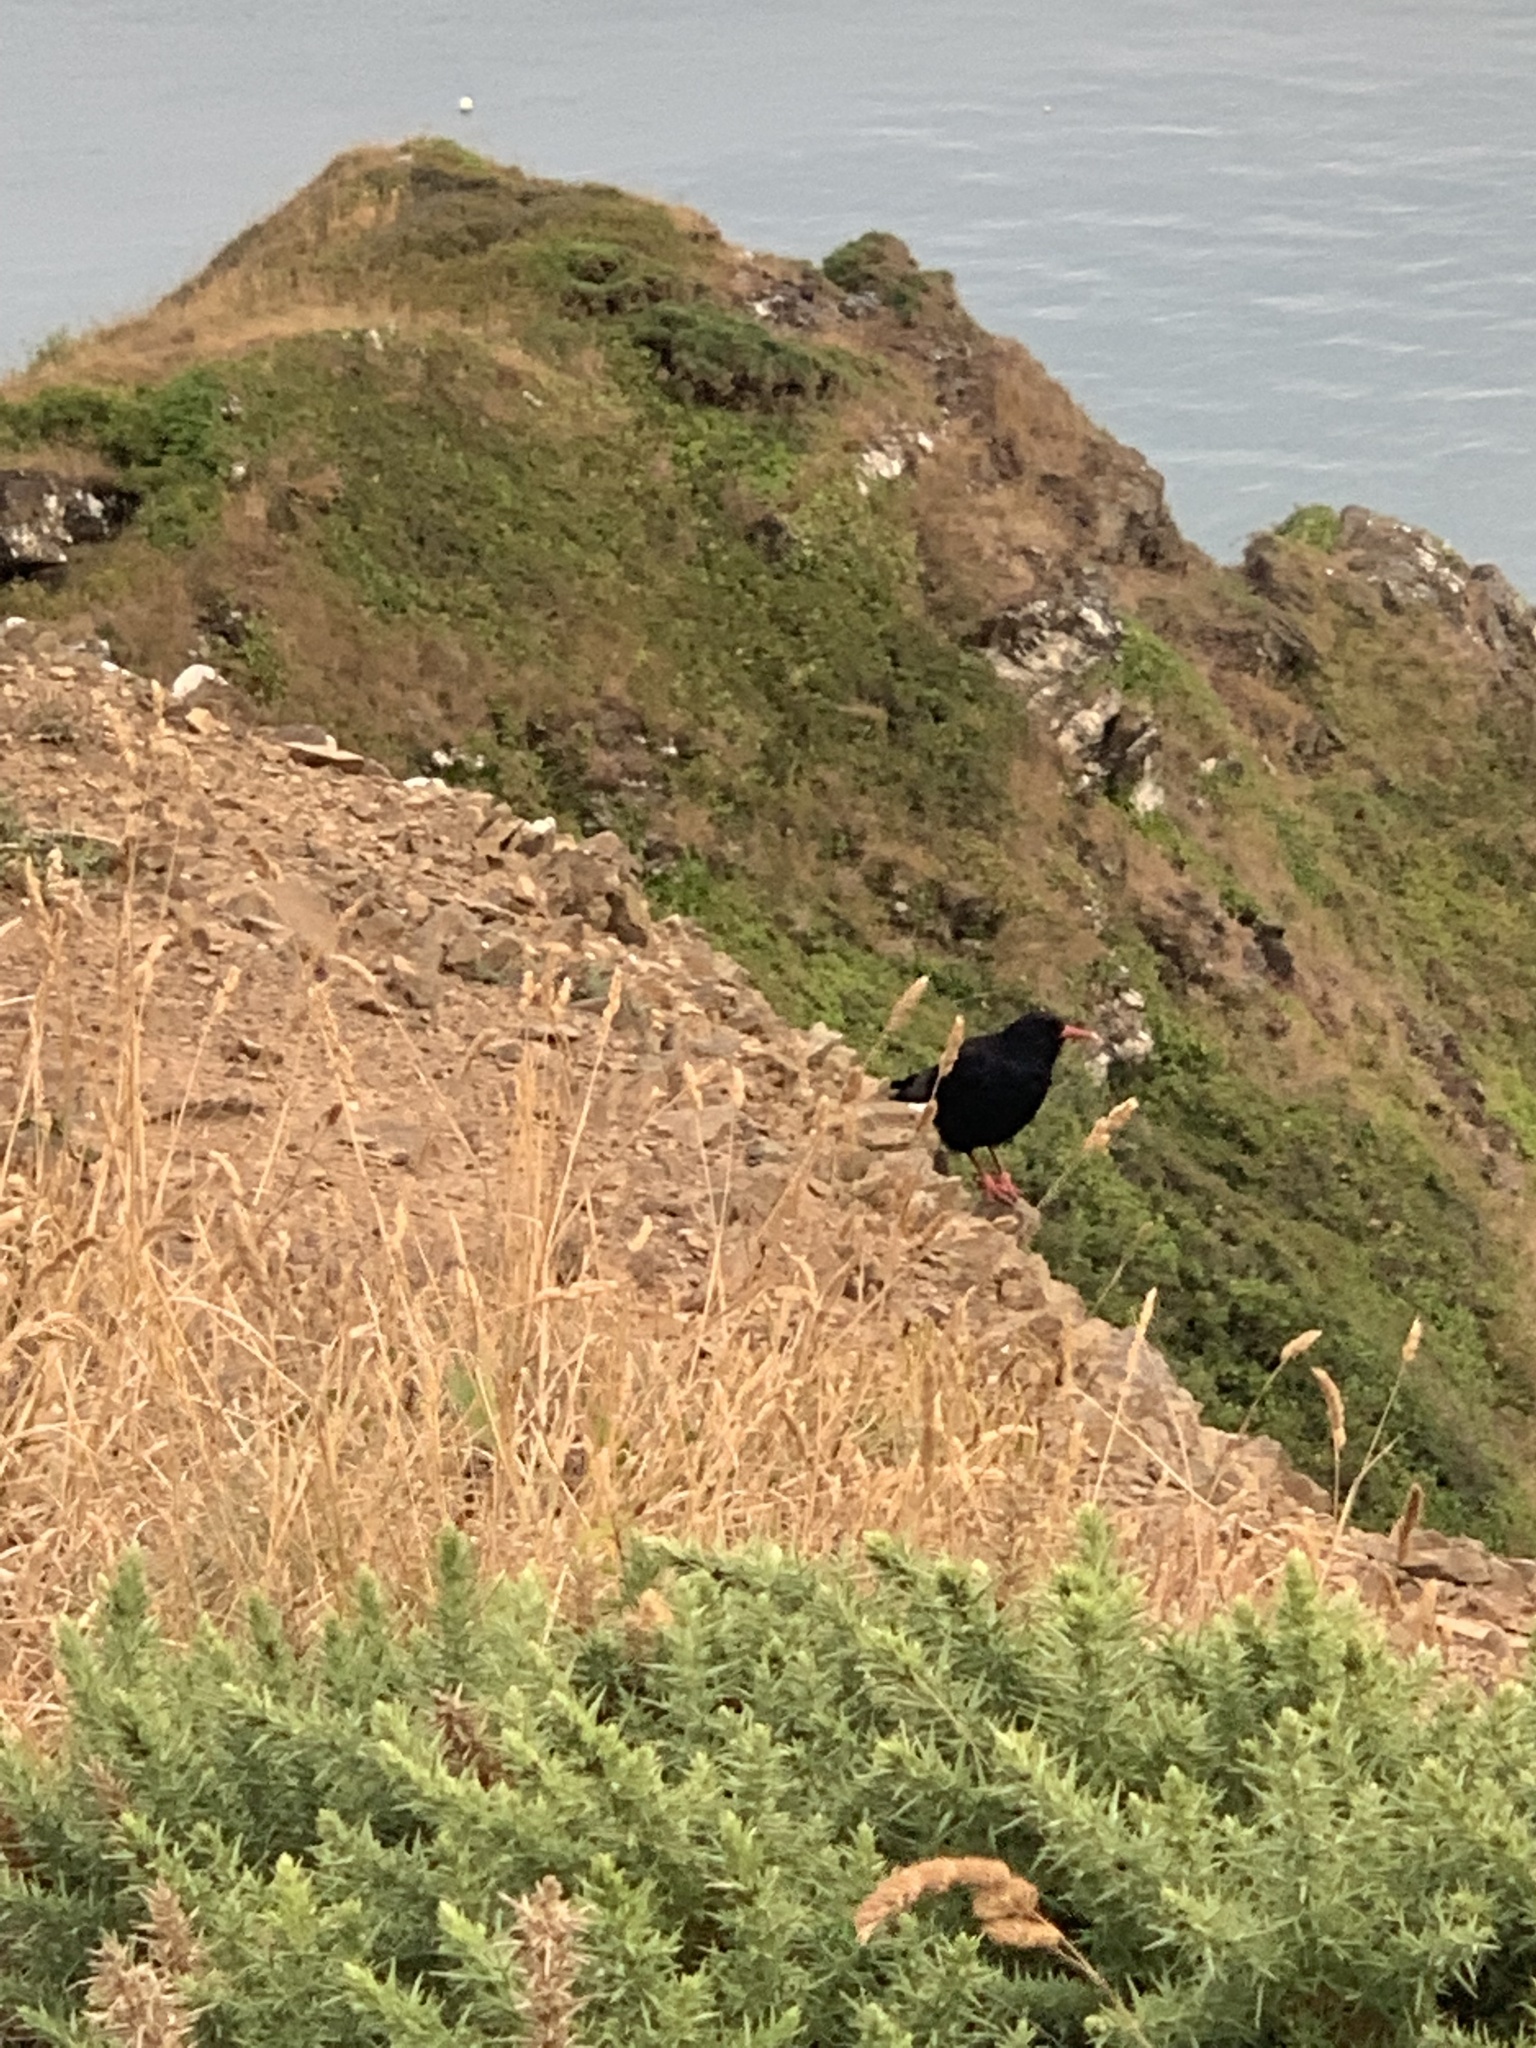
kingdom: Animalia
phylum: Chordata
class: Aves
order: Passeriformes
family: Corvidae
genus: Pyrrhocorax
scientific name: Pyrrhocorax pyrrhocorax
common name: Red-billed chough
